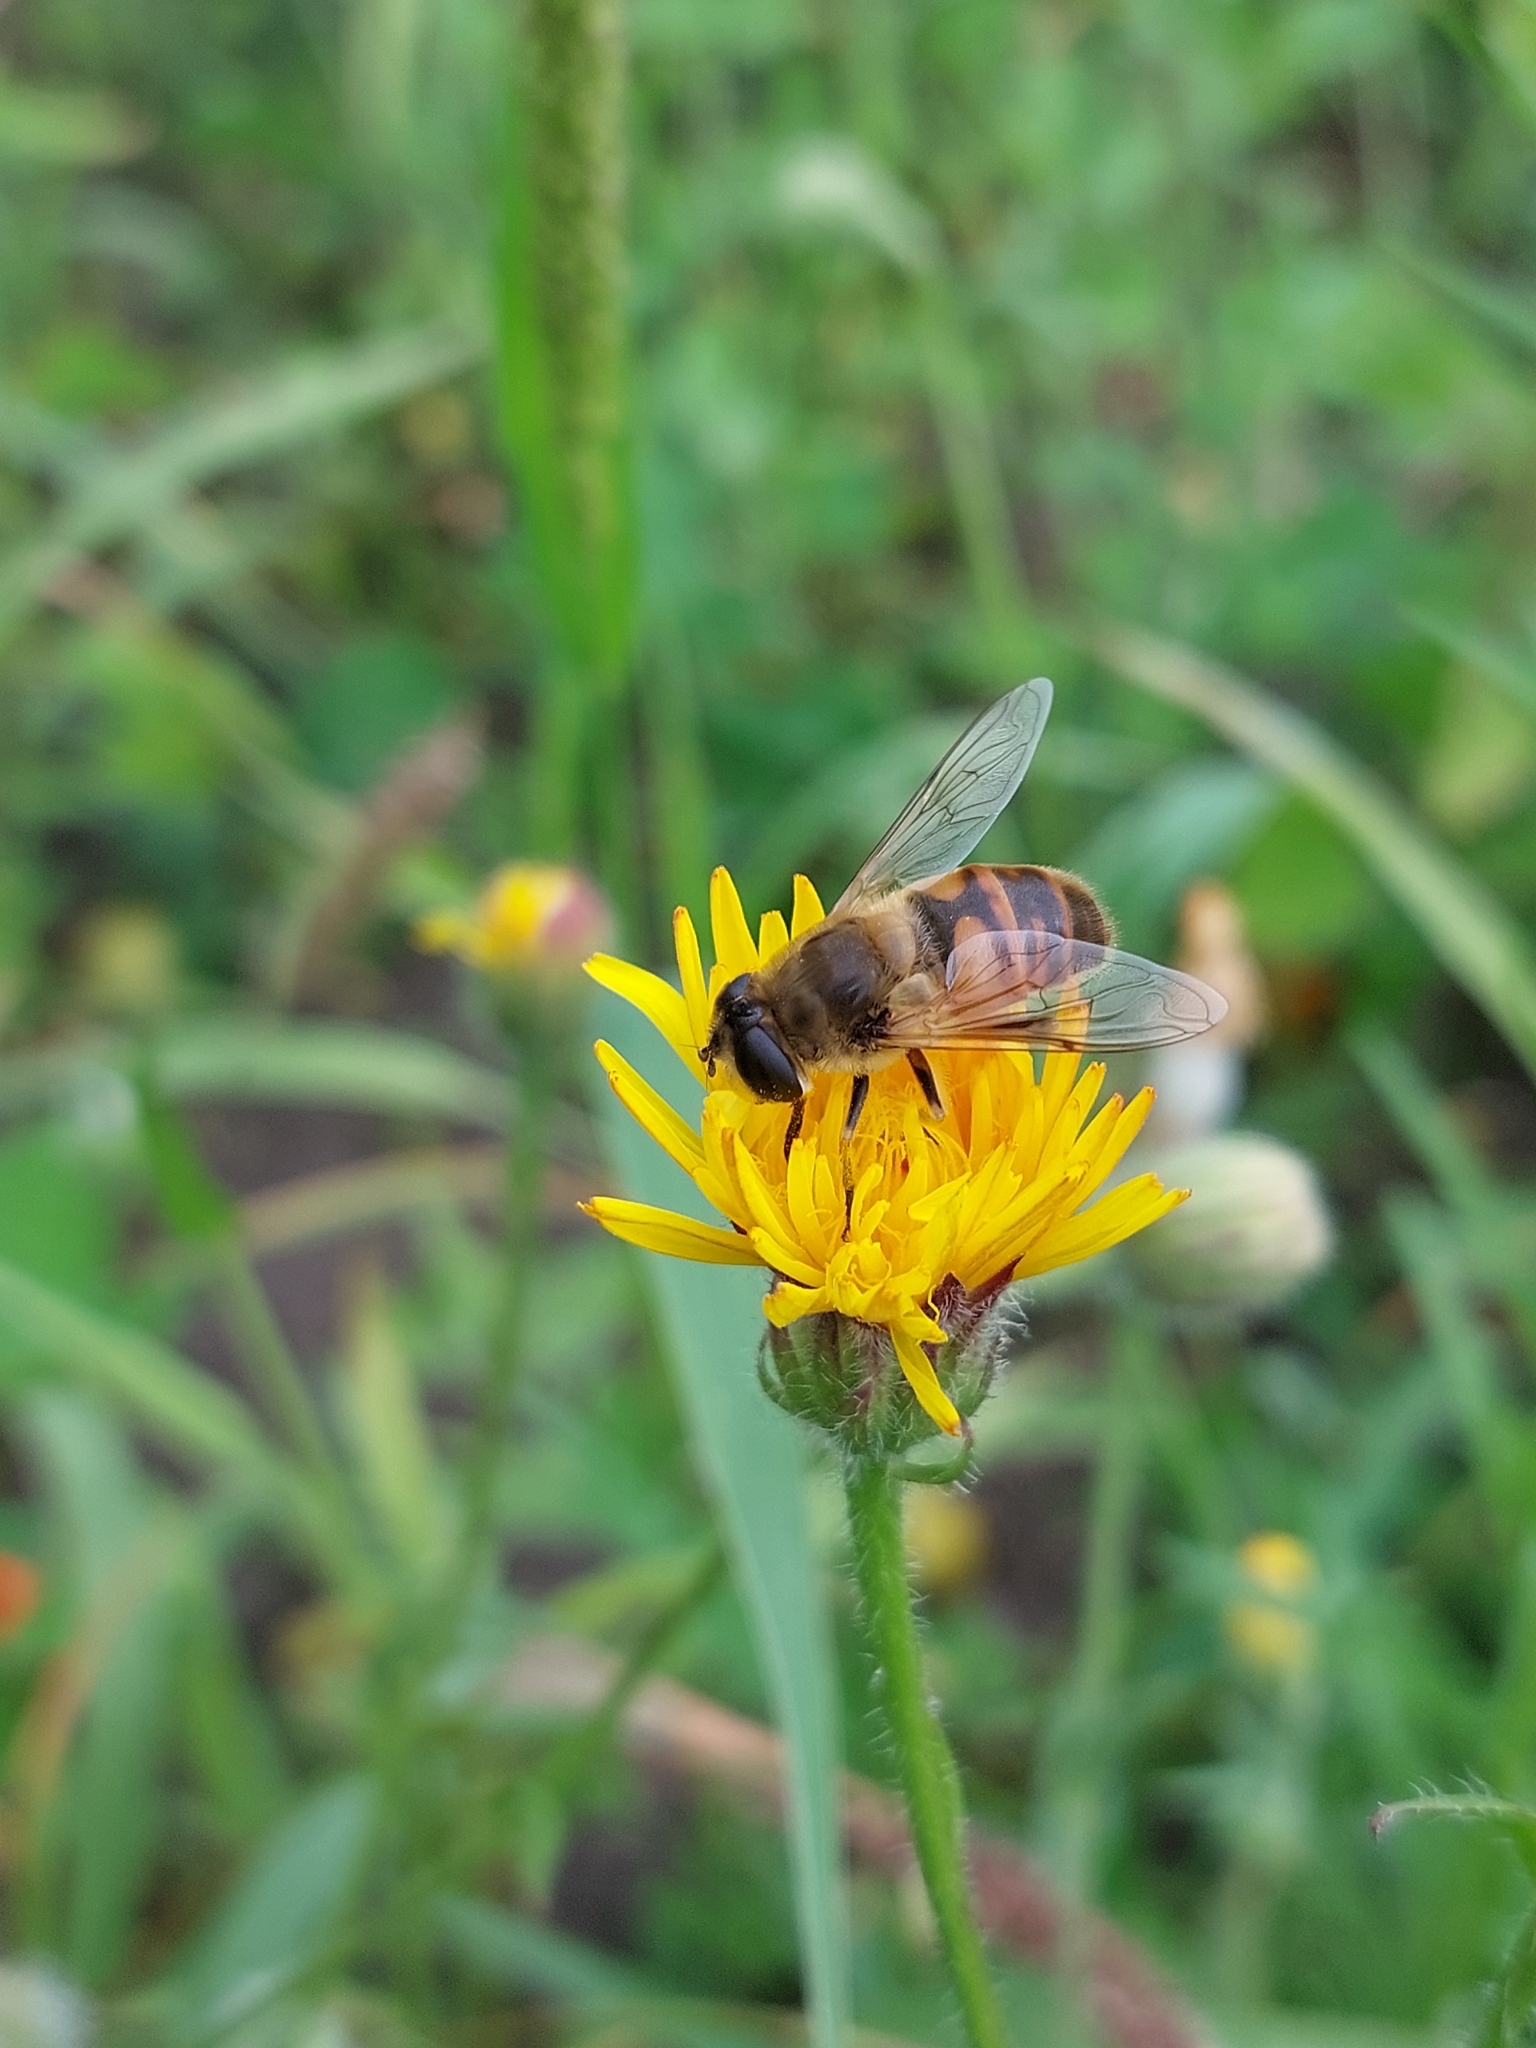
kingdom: Animalia
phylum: Arthropoda
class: Insecta
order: Diptera
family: Syrphidae
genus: Eristalis
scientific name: Eristalis tenax
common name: Drone fly
